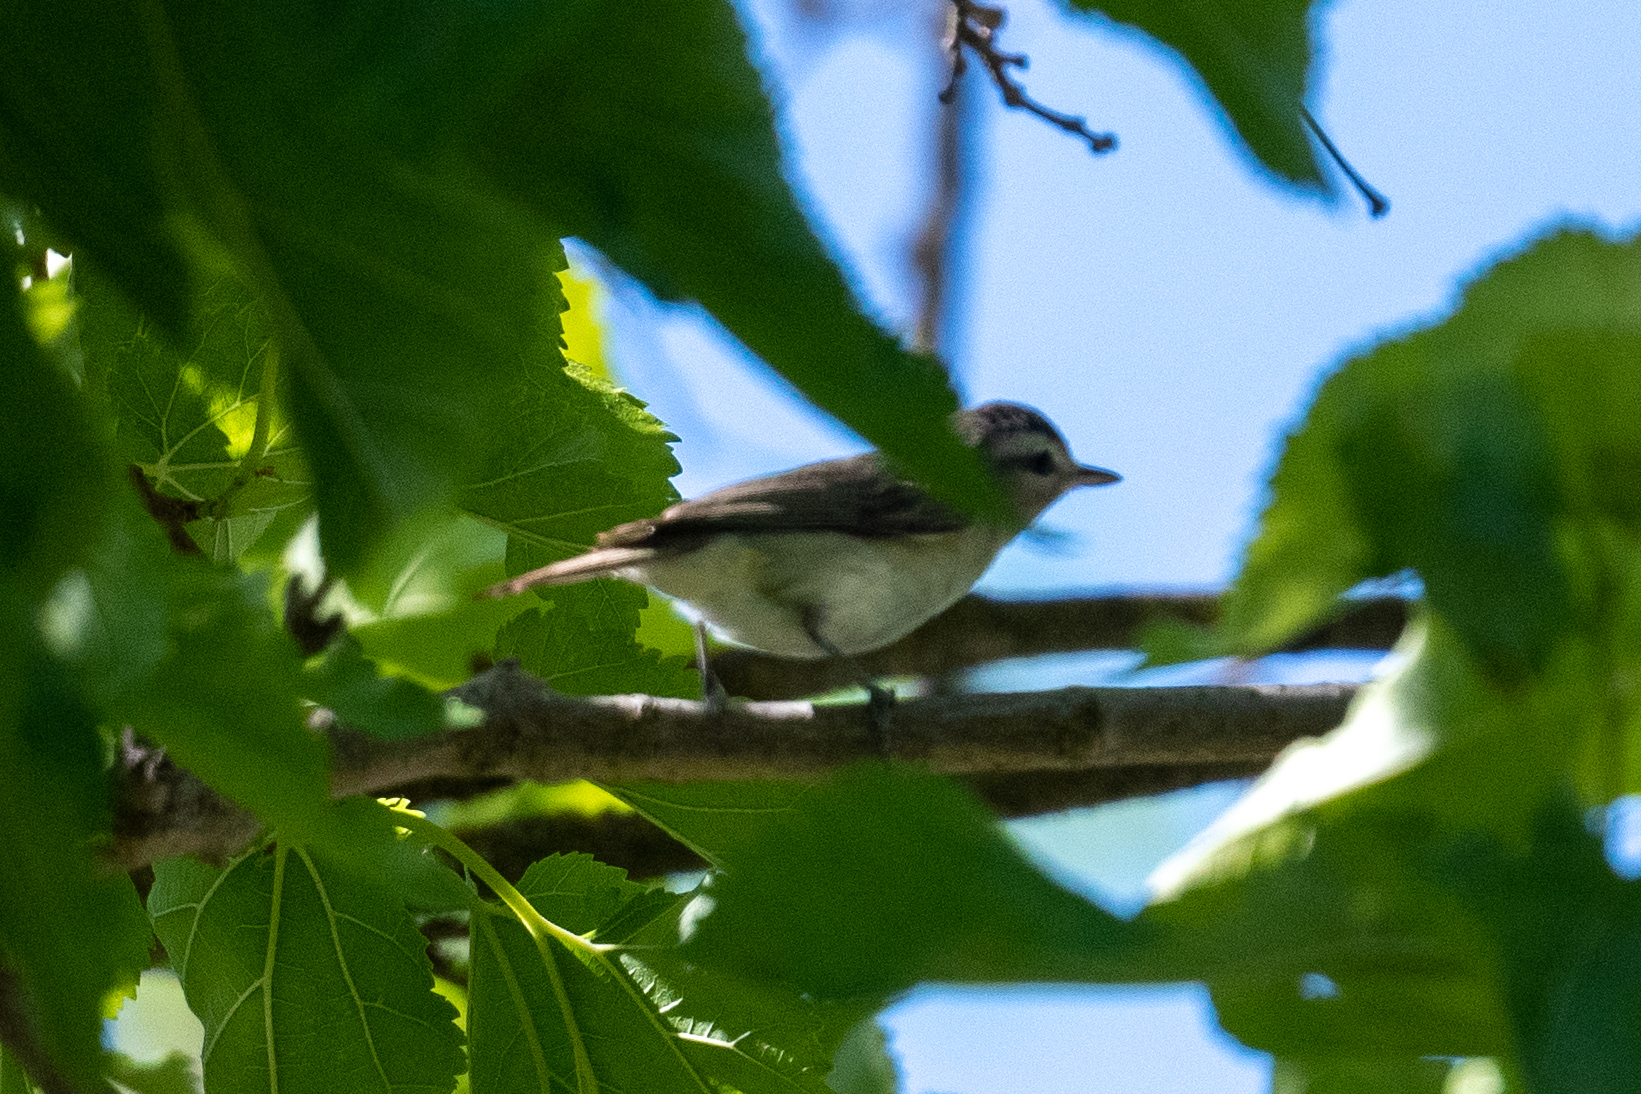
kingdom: Animalia
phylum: Chordata
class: Aves
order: Passeriformes
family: Vireonidae
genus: Vireo
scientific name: Vireo gilvus
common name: Warbling vireo
